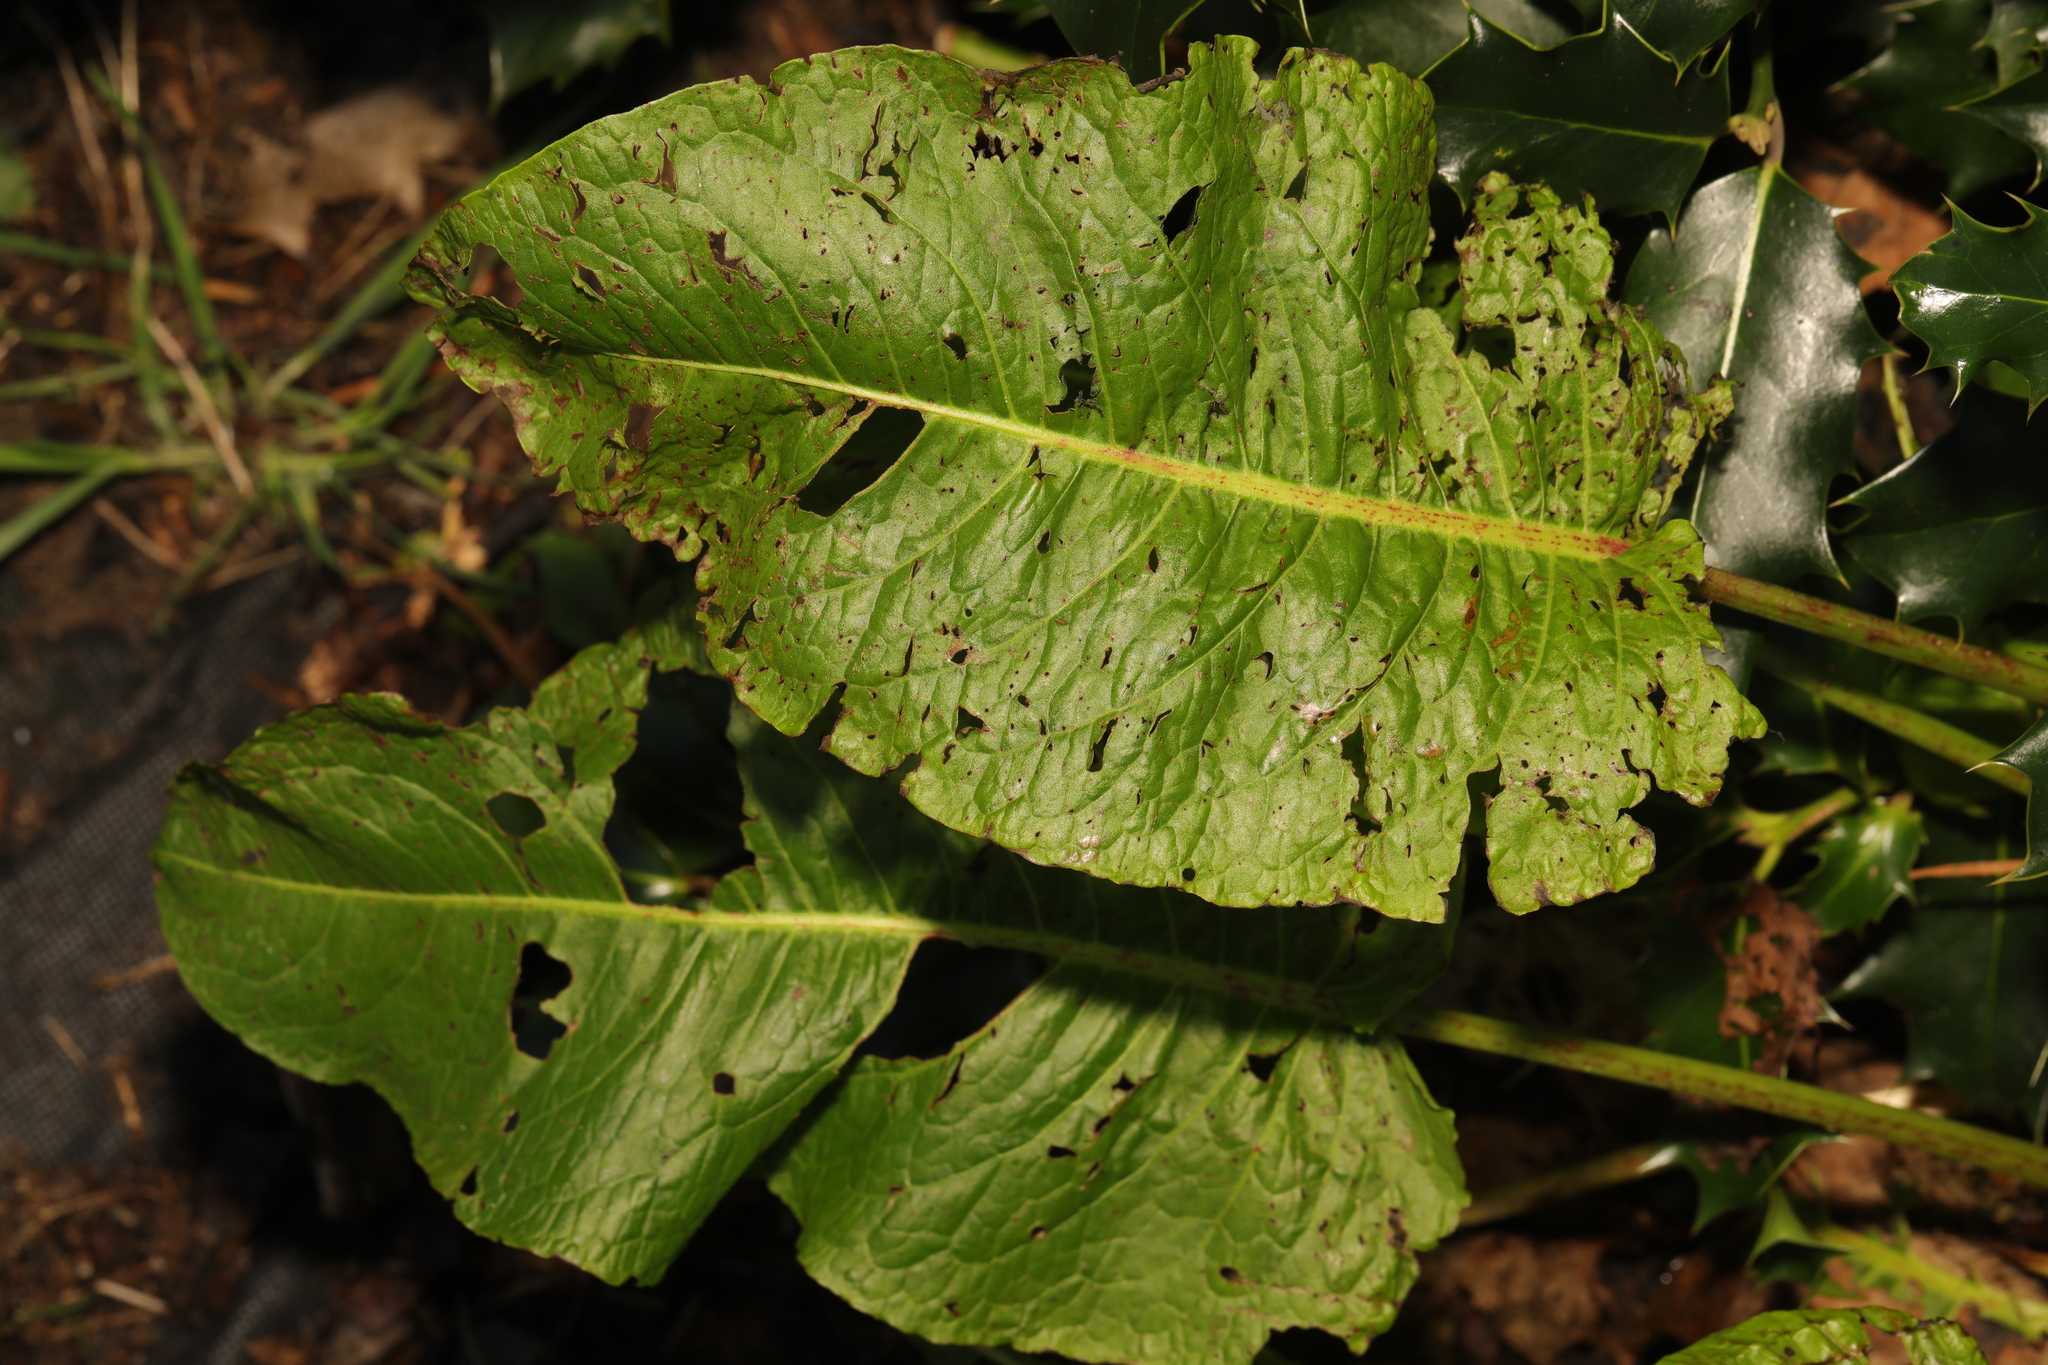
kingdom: Plantae
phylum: Tracheophyta
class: Magnoliopsida
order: Caryophyllales
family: Polygonaceae
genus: Rumex
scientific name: Rumex obtusifolius
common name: Bitter dock
